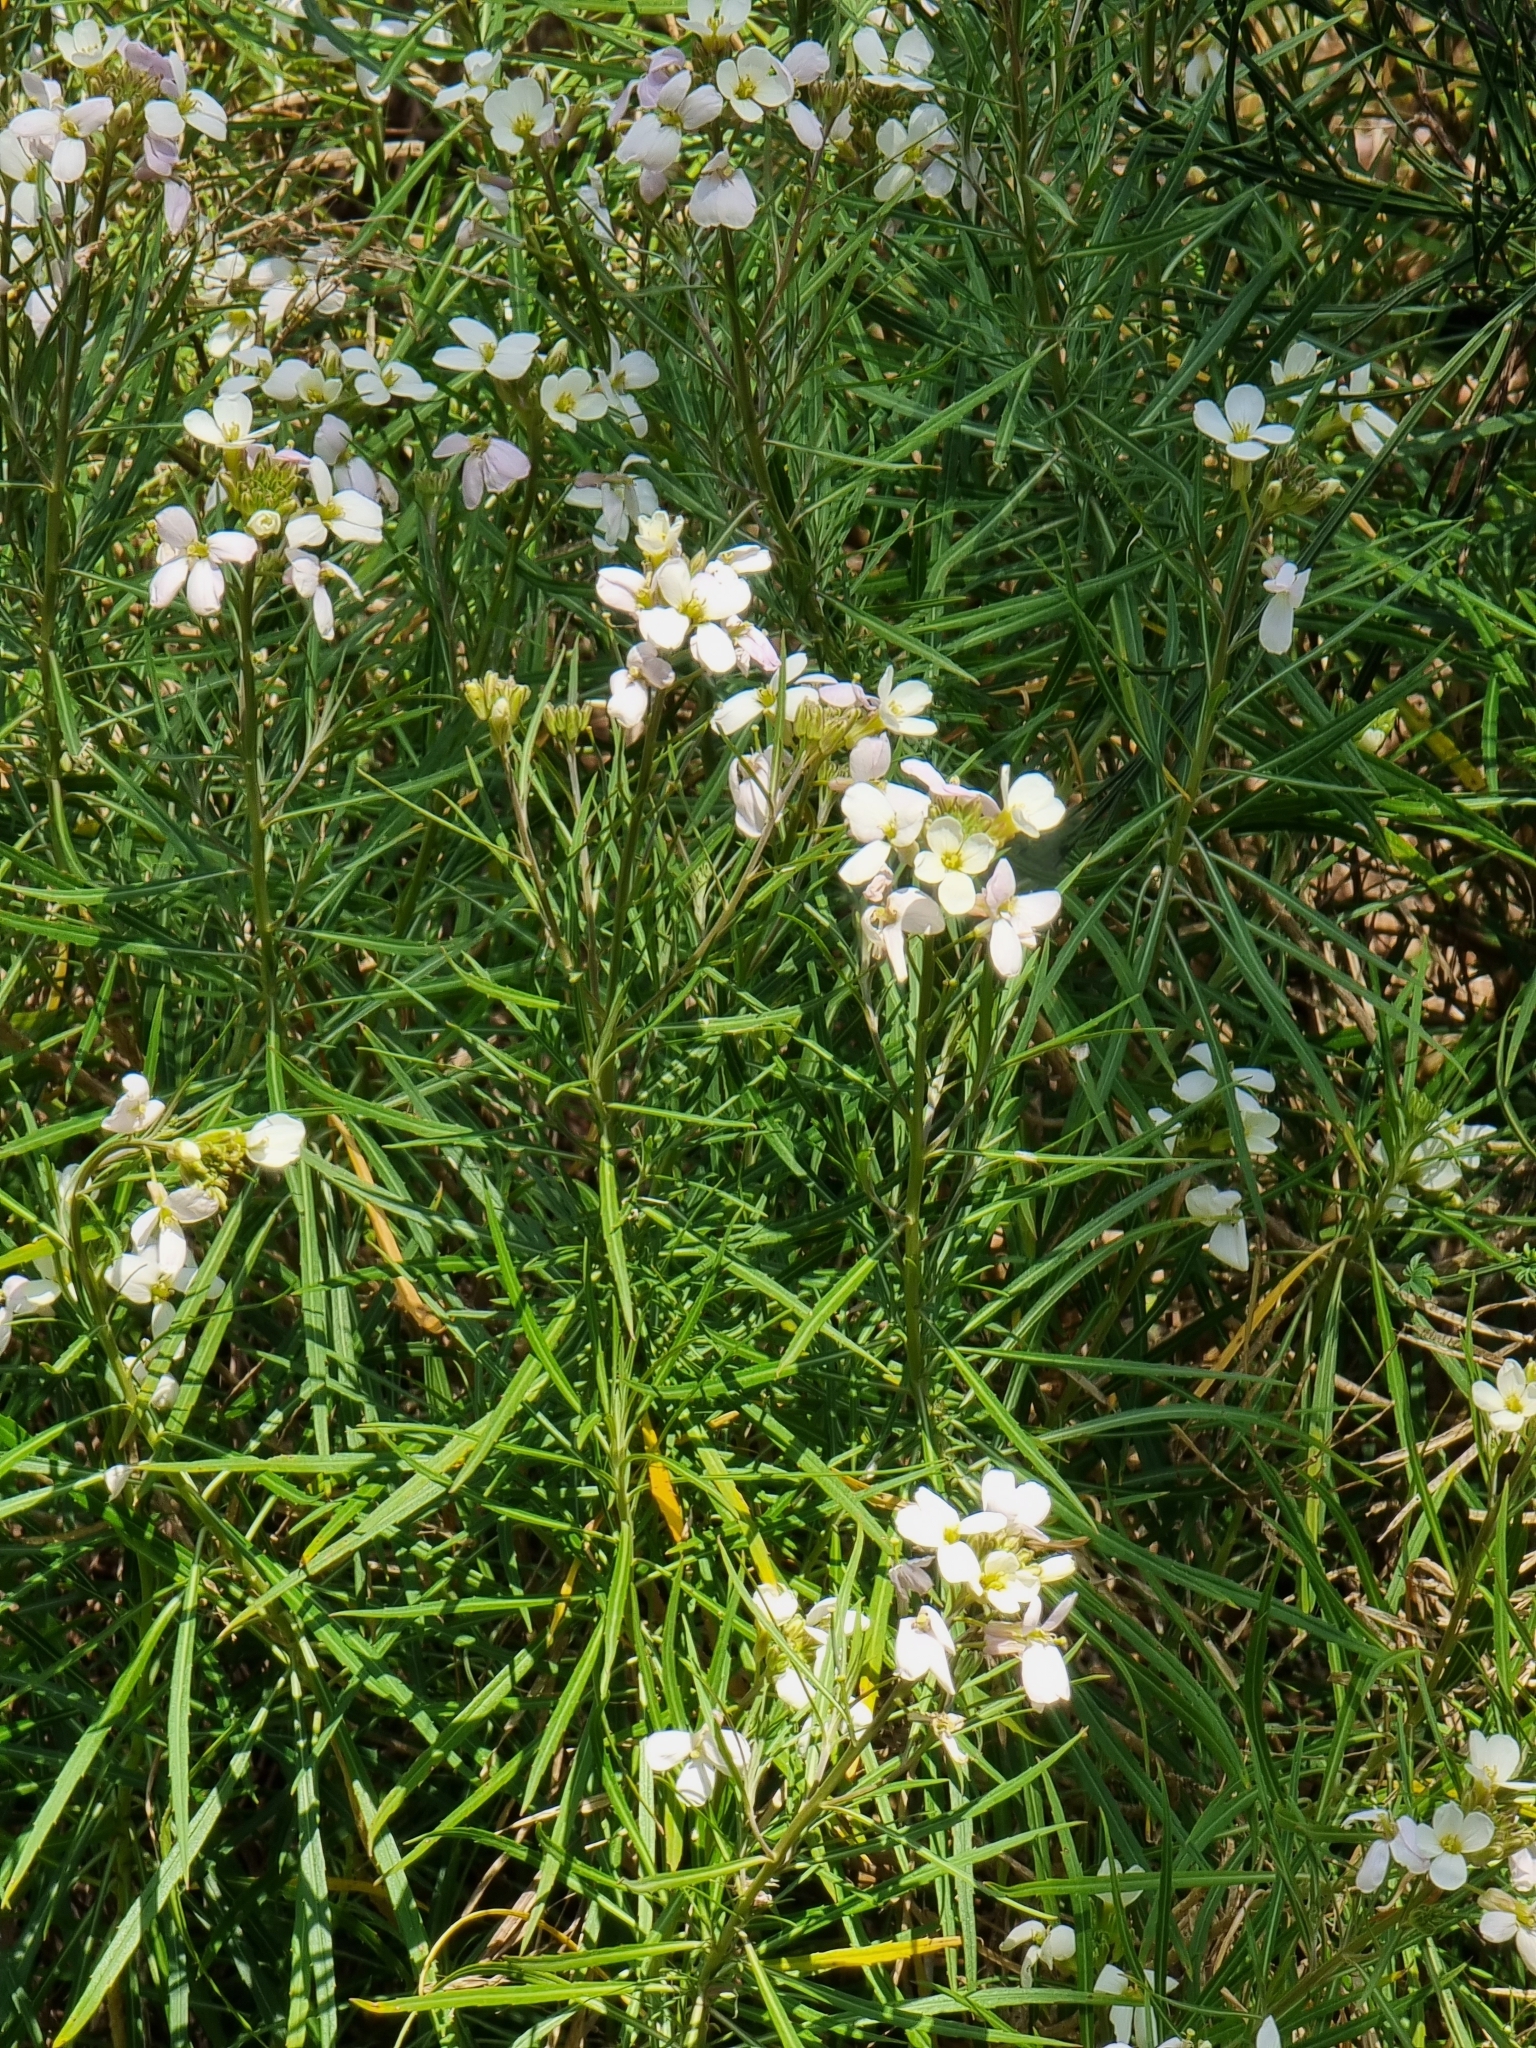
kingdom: Plantae
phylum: Tracheophyta
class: Magnoliopsida
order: Brassicales
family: Brassicaceae
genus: Erysimum
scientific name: Erysimum bicolor
